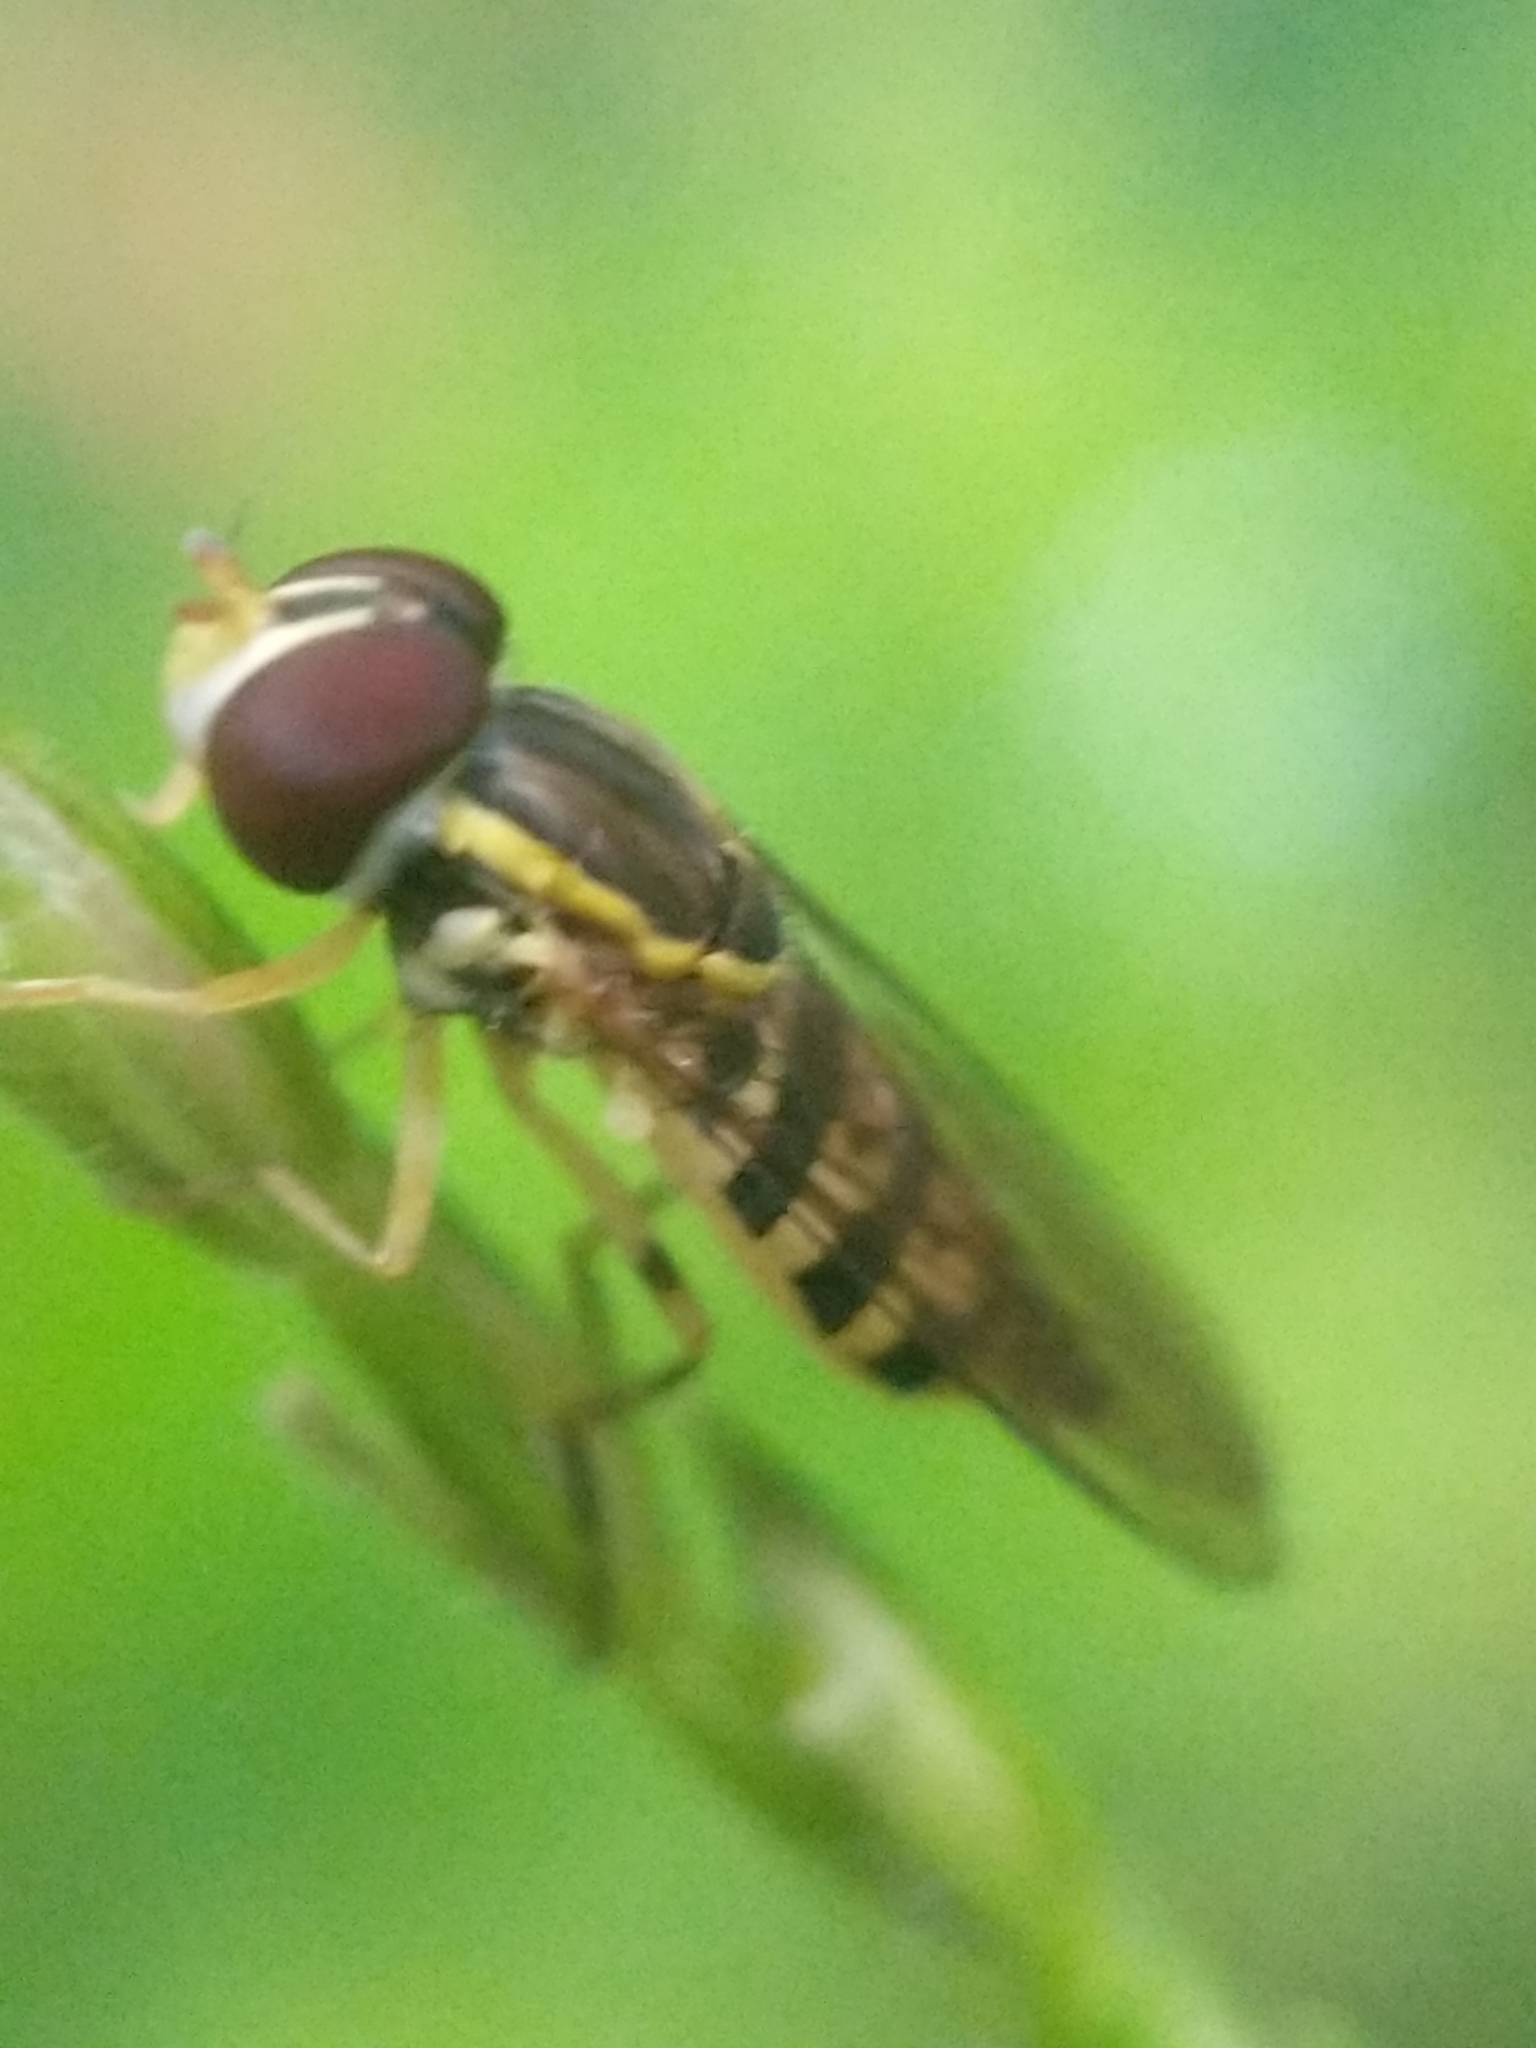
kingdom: Animalia
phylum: Arthropoda
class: Insecta
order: Diptera
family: Syrphidae
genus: Toxomerus
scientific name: Toxomerus geminatus
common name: Eastern calligrapher
